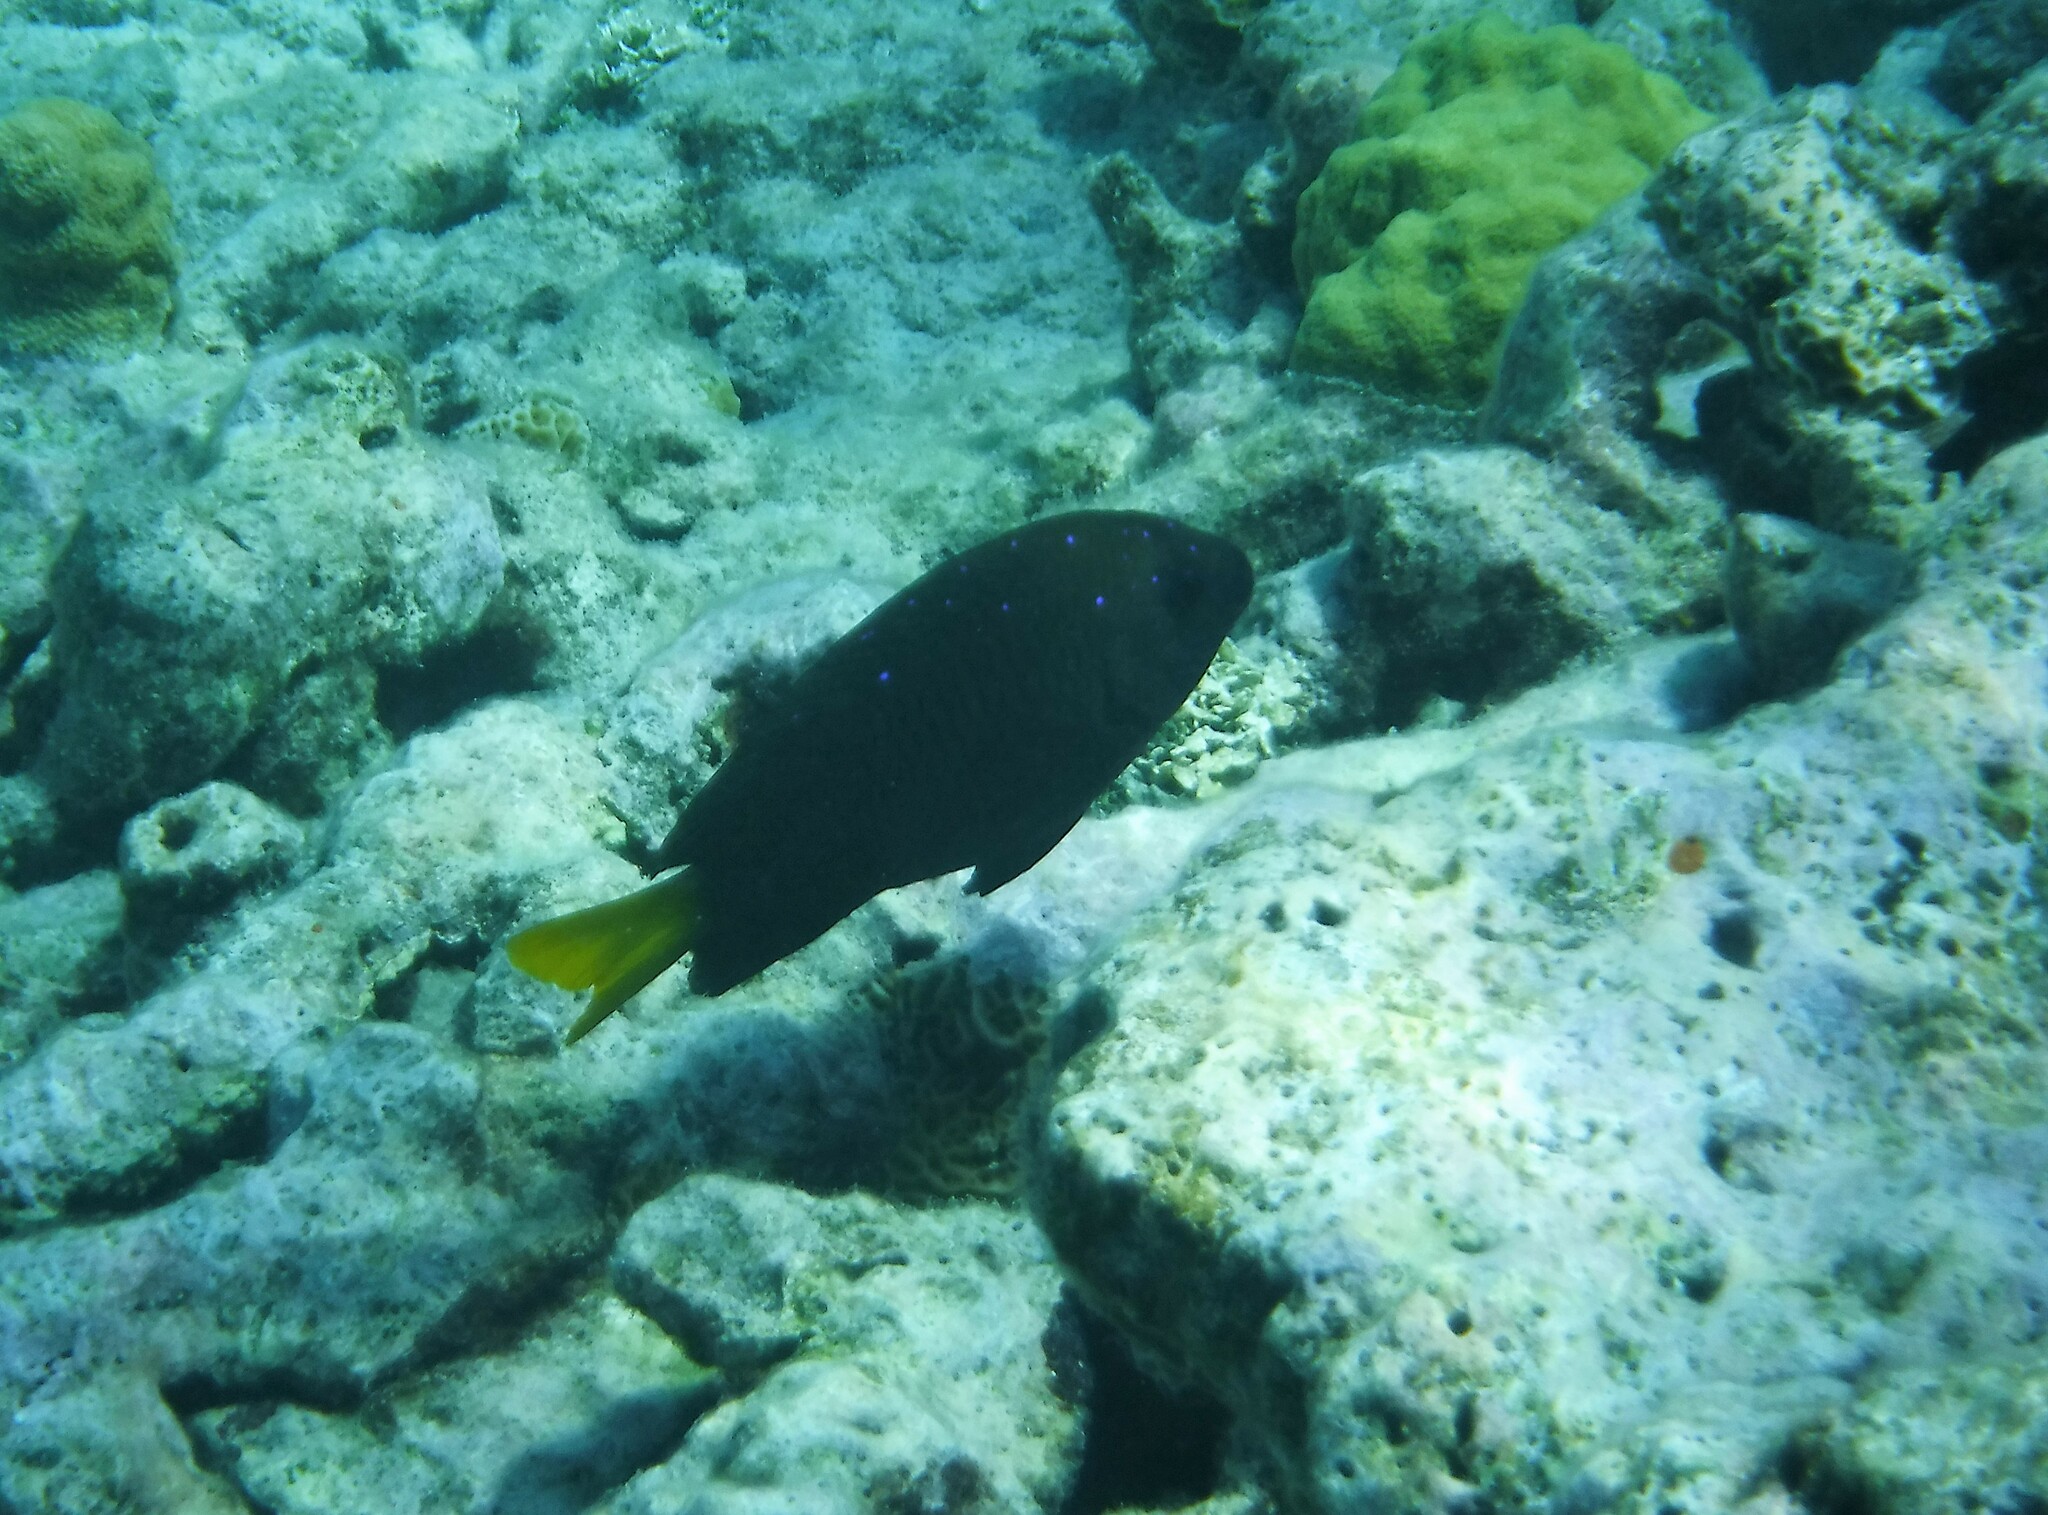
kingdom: Animalia
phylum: Chordata
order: Perciformes
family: Pomacentridae
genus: Microspathodon
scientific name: Microspathodon chrysurus
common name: Yellowtail damselfish
